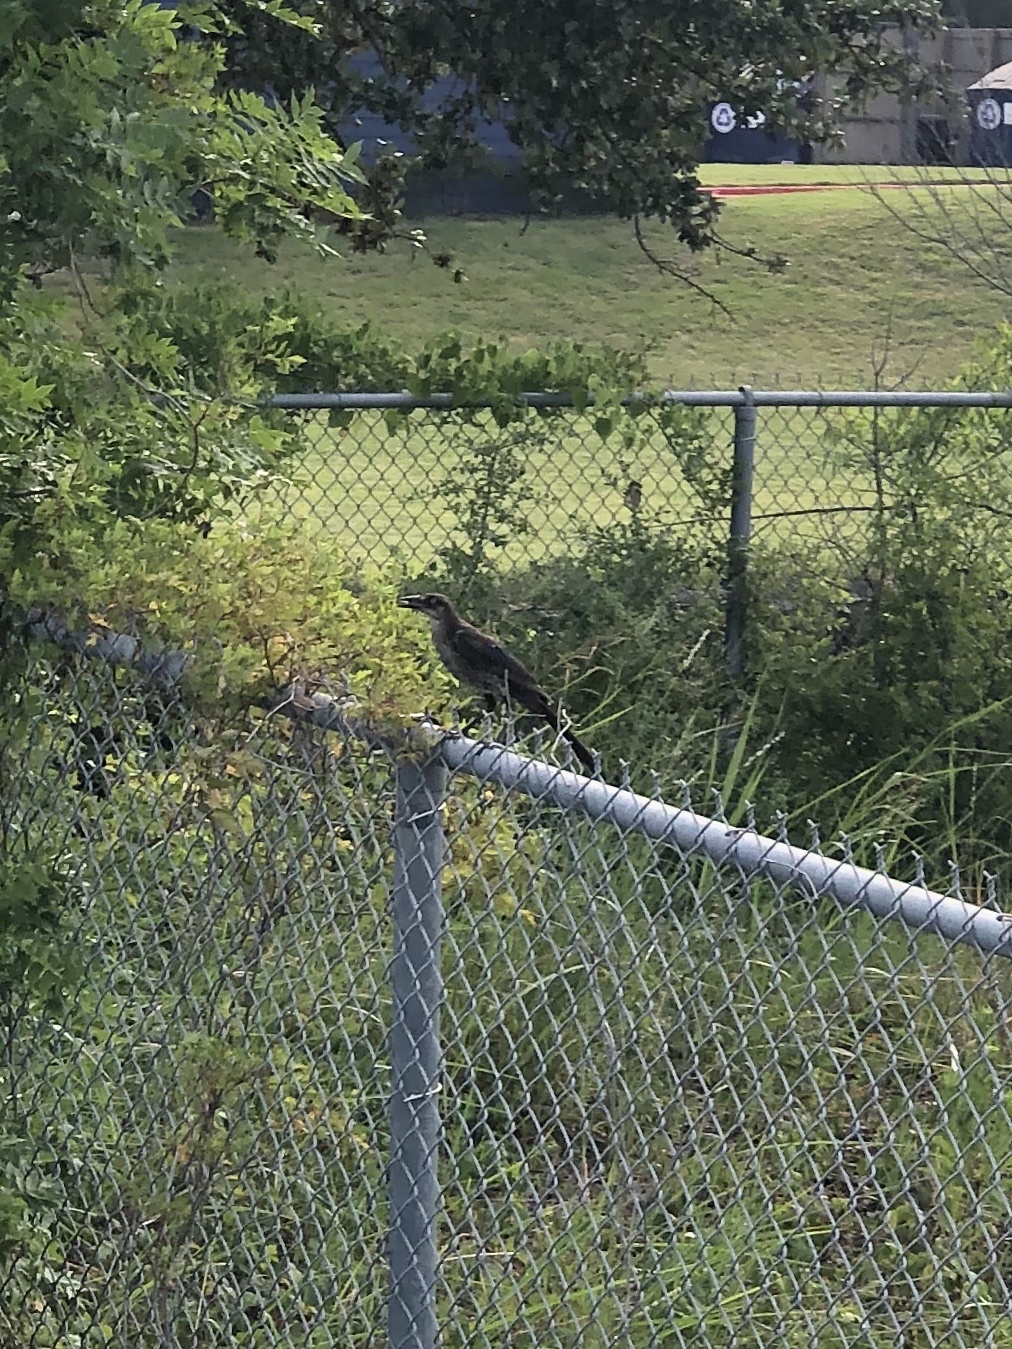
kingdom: Animalia
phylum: Chordata
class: Aves
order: Passeriformes
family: Icteridae
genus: Quiscalus
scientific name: Quiscalus mexicanus
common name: Great-tailed grackle
